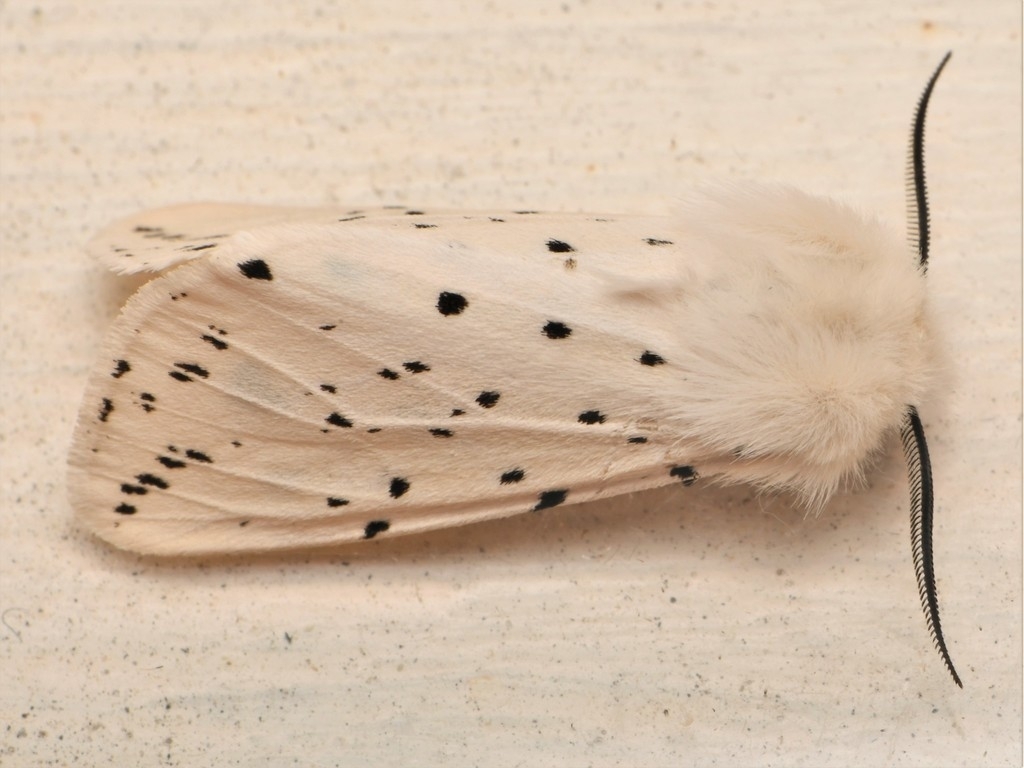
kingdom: Animalia
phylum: Arthropoda
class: Insecta
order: Lepidoptera
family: Erebidae
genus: Spilosoma
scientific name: Spilosoma lubricipeda
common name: White ermine
